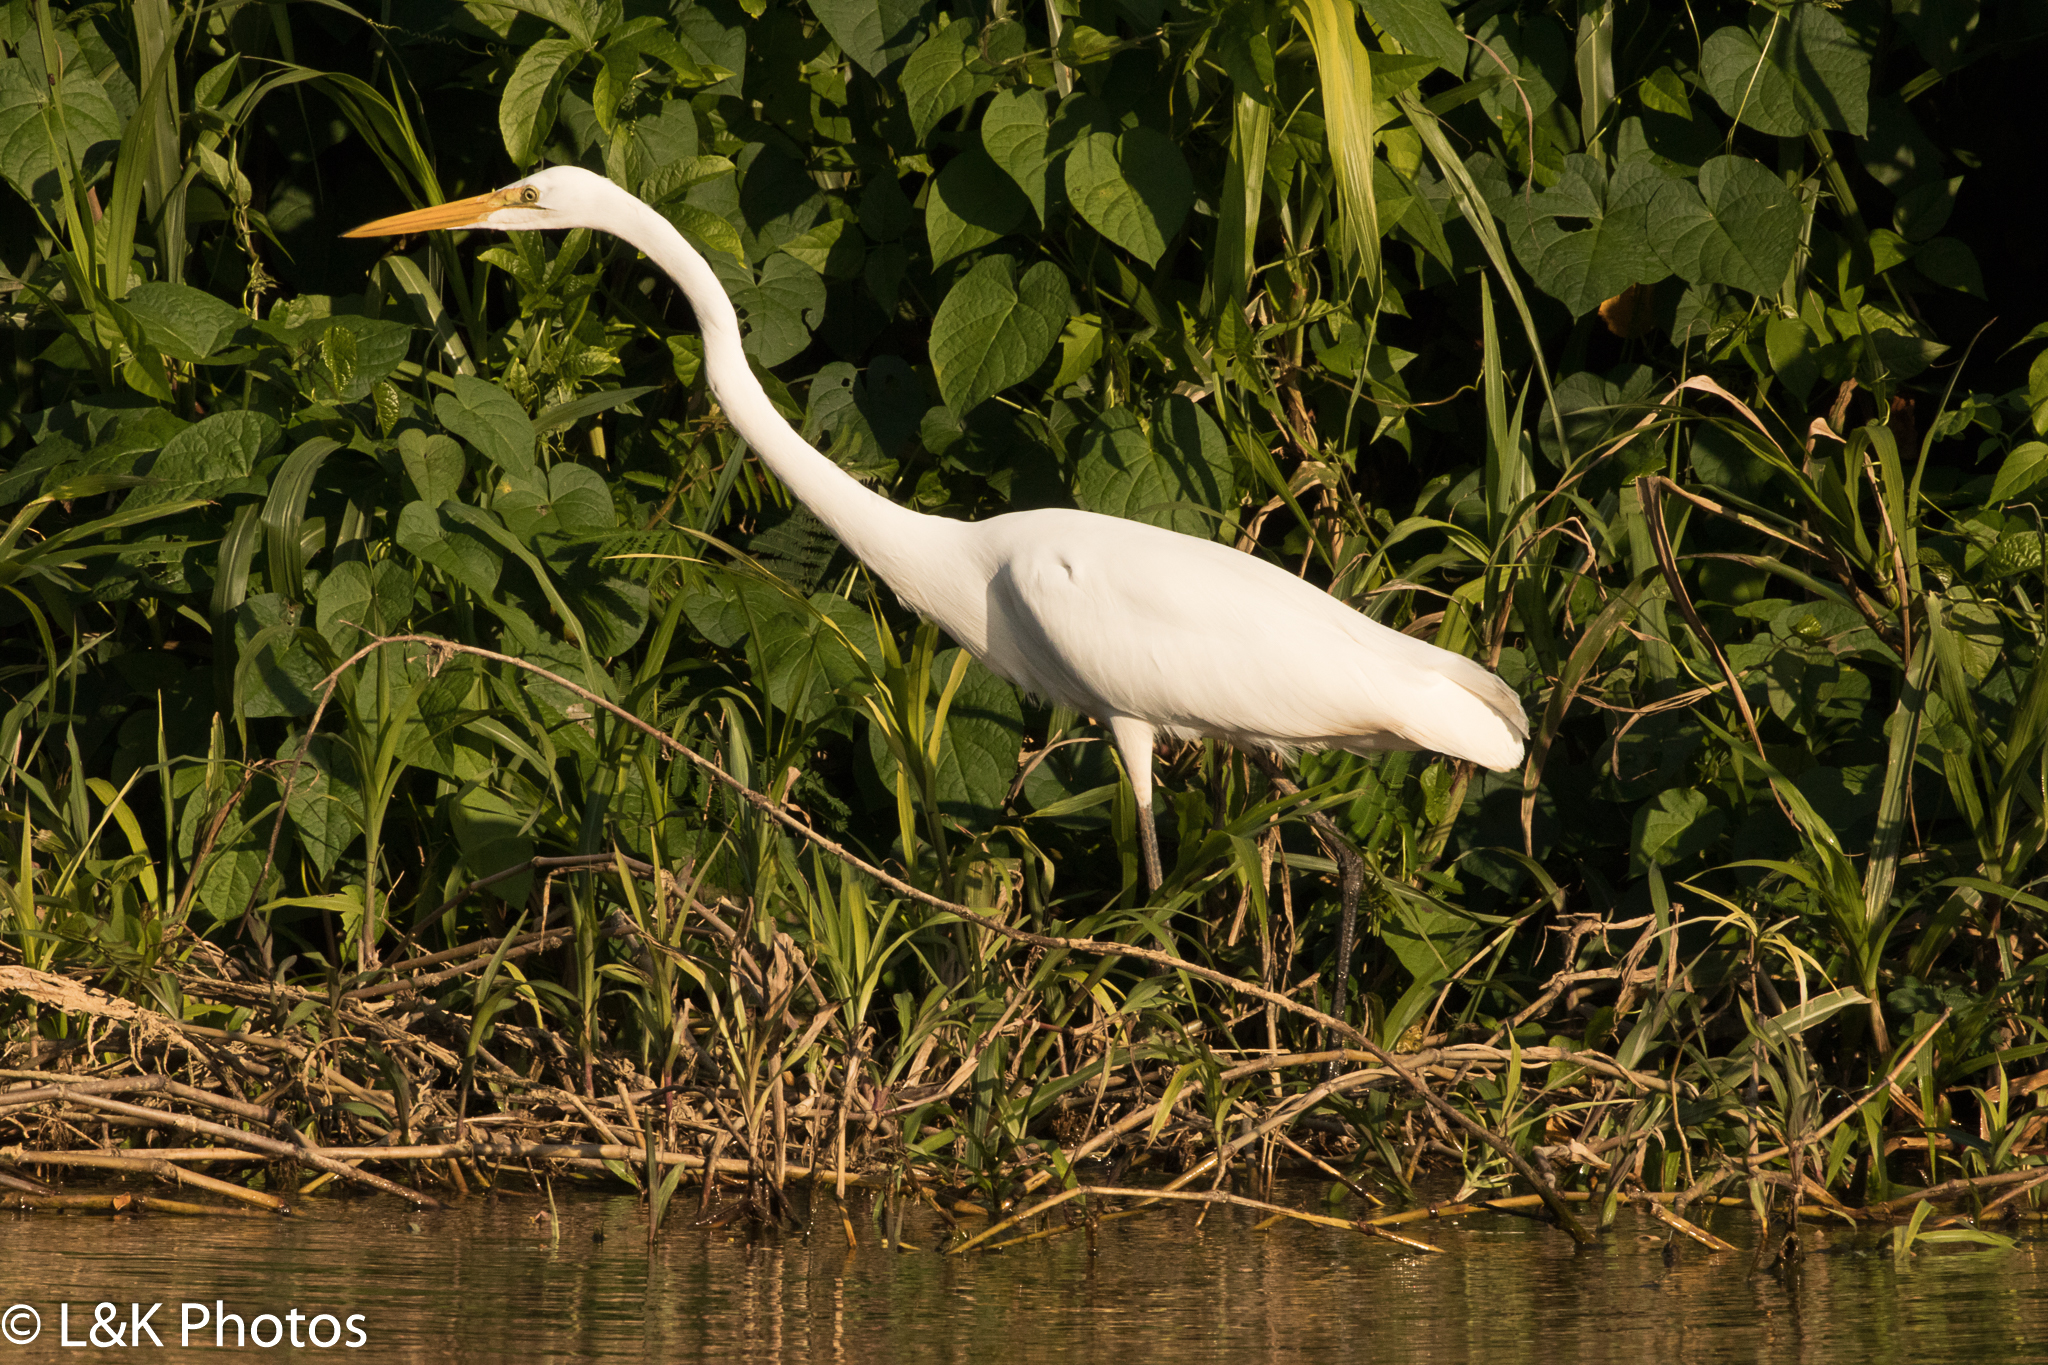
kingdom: Animalia
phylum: Chordata
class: Aves
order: Pelecaniformes
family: Ardeidae
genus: Ardea
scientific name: Ardea alba
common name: Great egret
